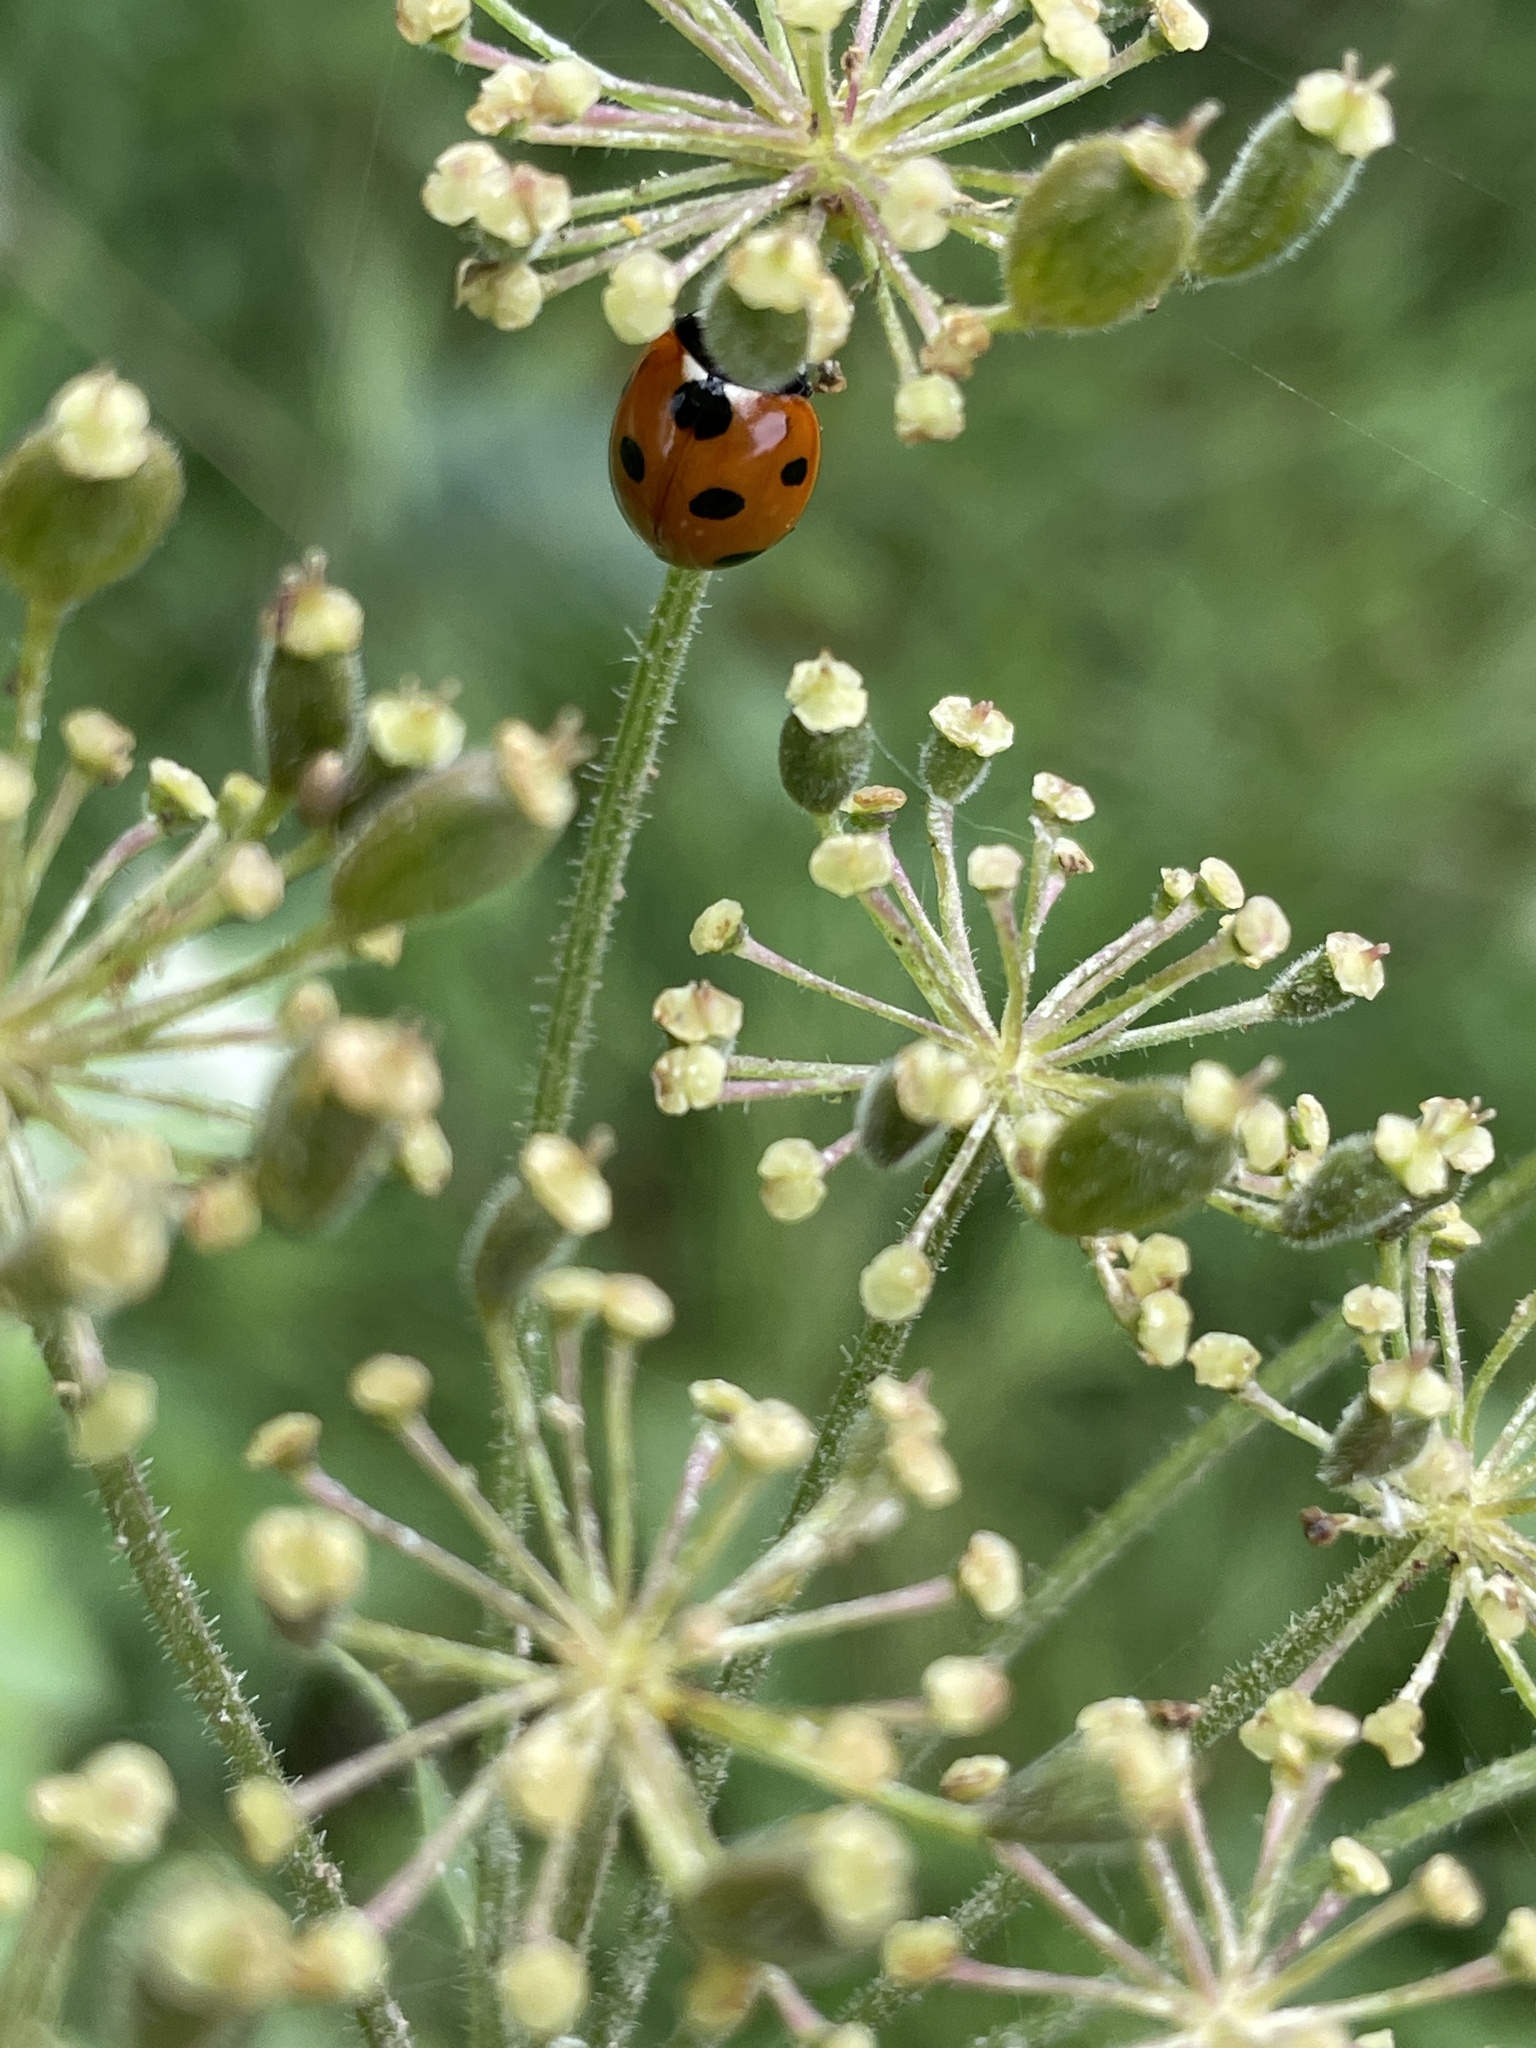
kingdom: Animalia
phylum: Arthropoda
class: Insecta
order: Coleoptera
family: Coccinellidae
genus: Coccinella
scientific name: Coccinella septempunctata
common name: Sevenspotted lady beetle
